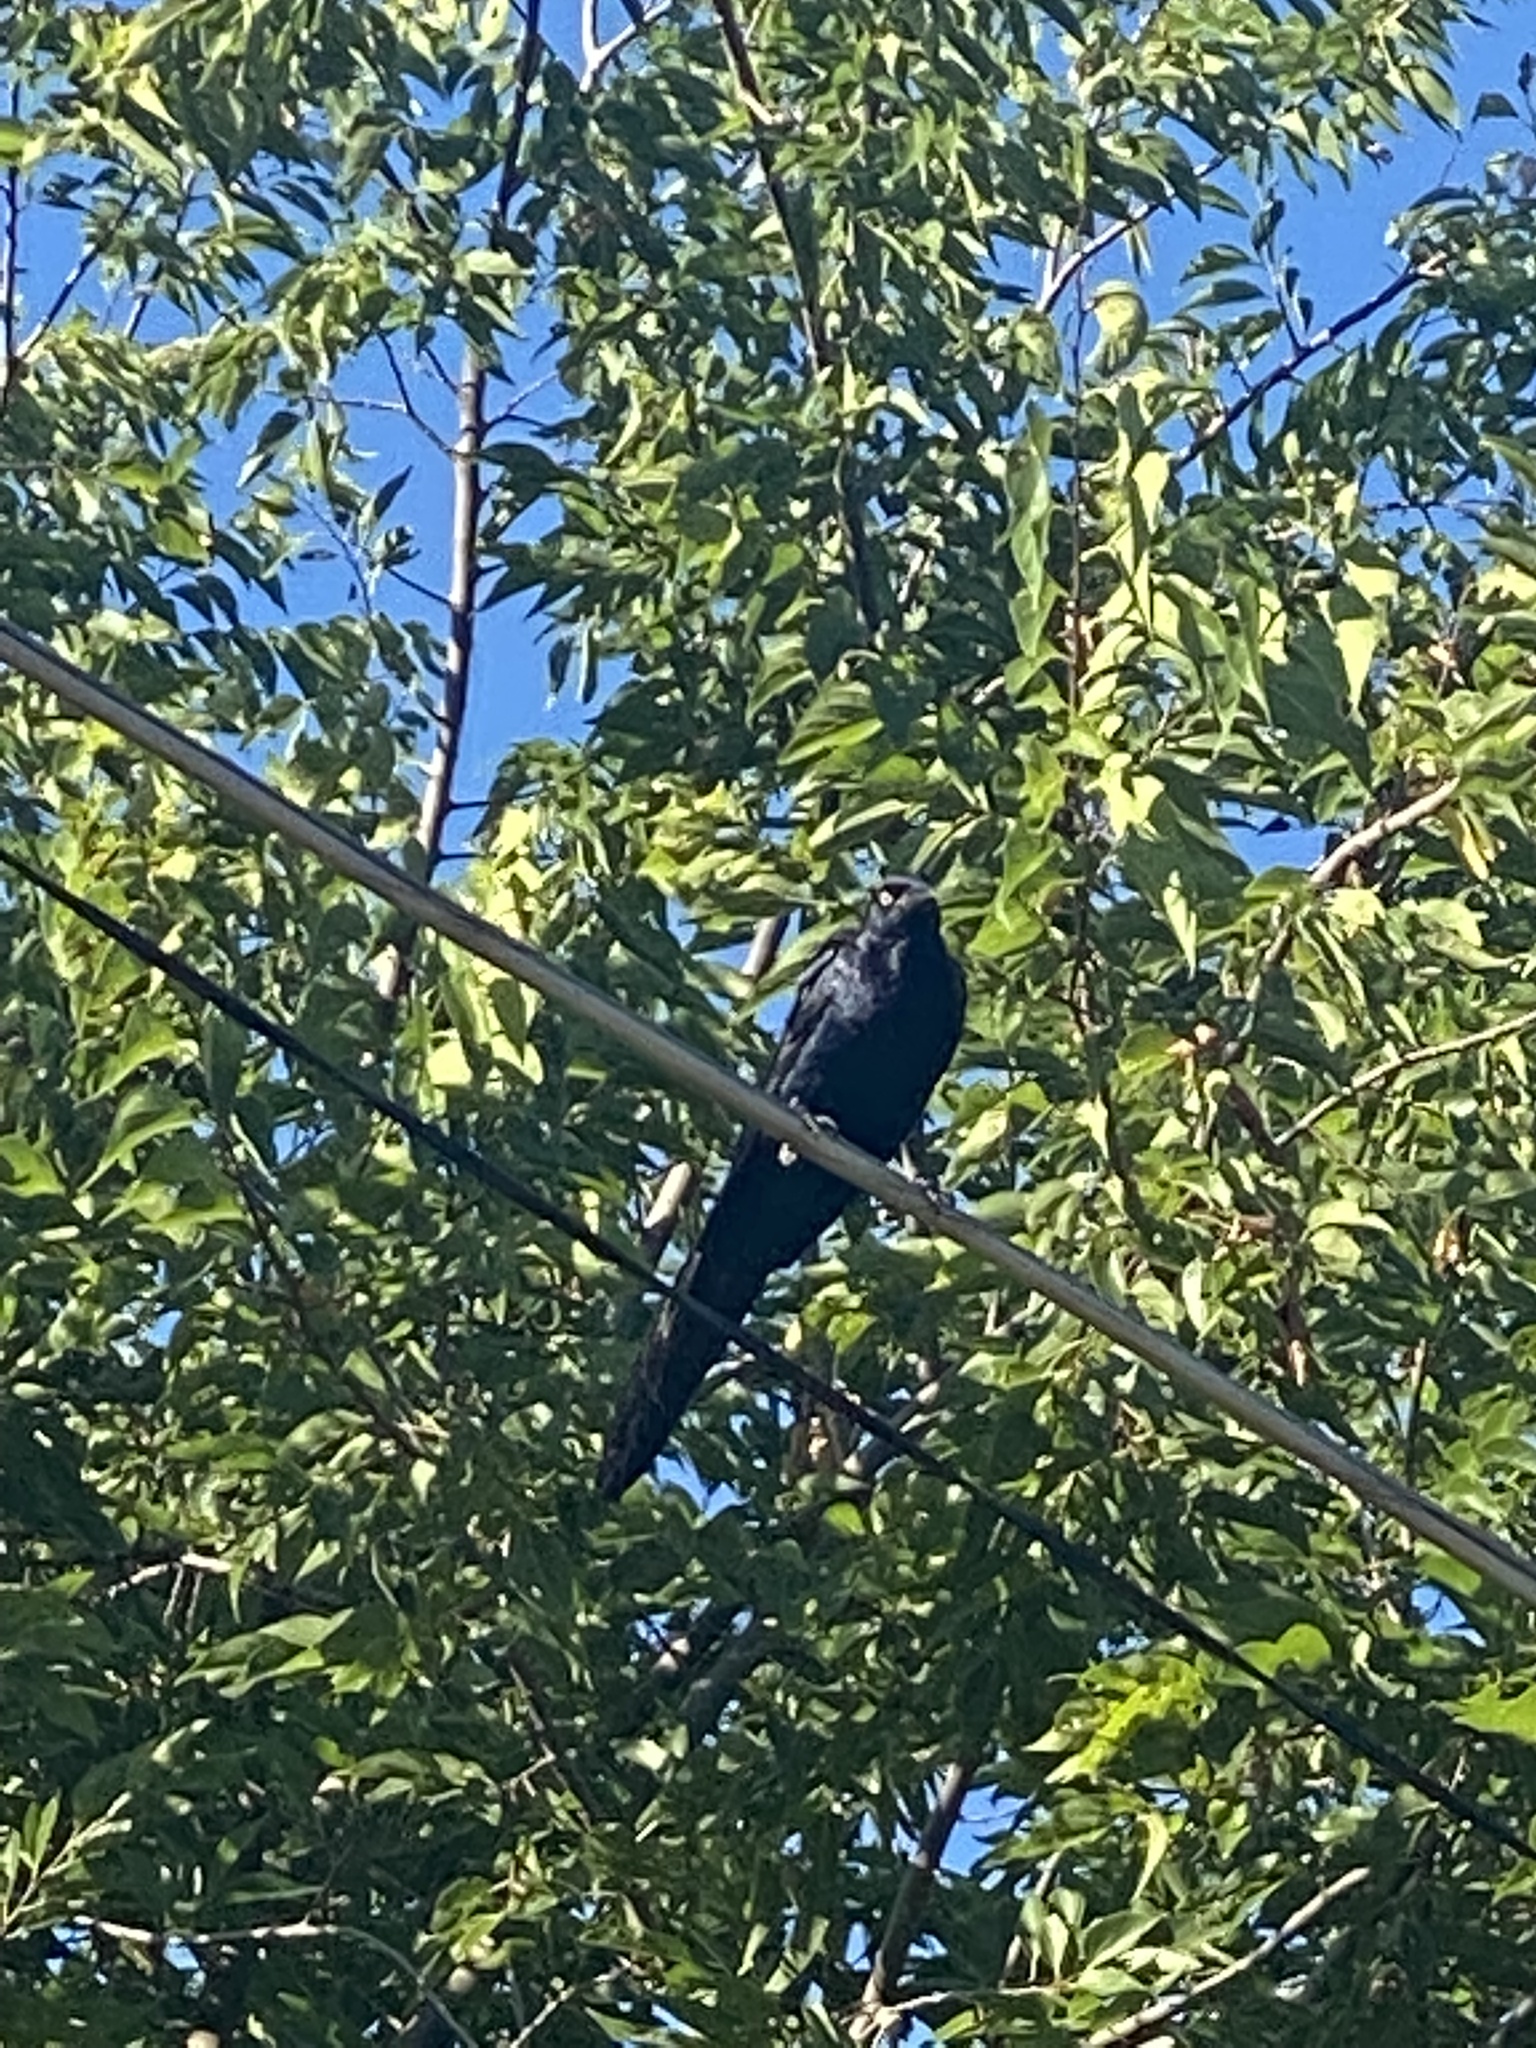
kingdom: Animalia
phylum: Chordata
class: Aves
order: Passeriformes
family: Icteridae
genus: Quiscalus
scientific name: Quiscalus mexicanus
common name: Great-tailed grackle
